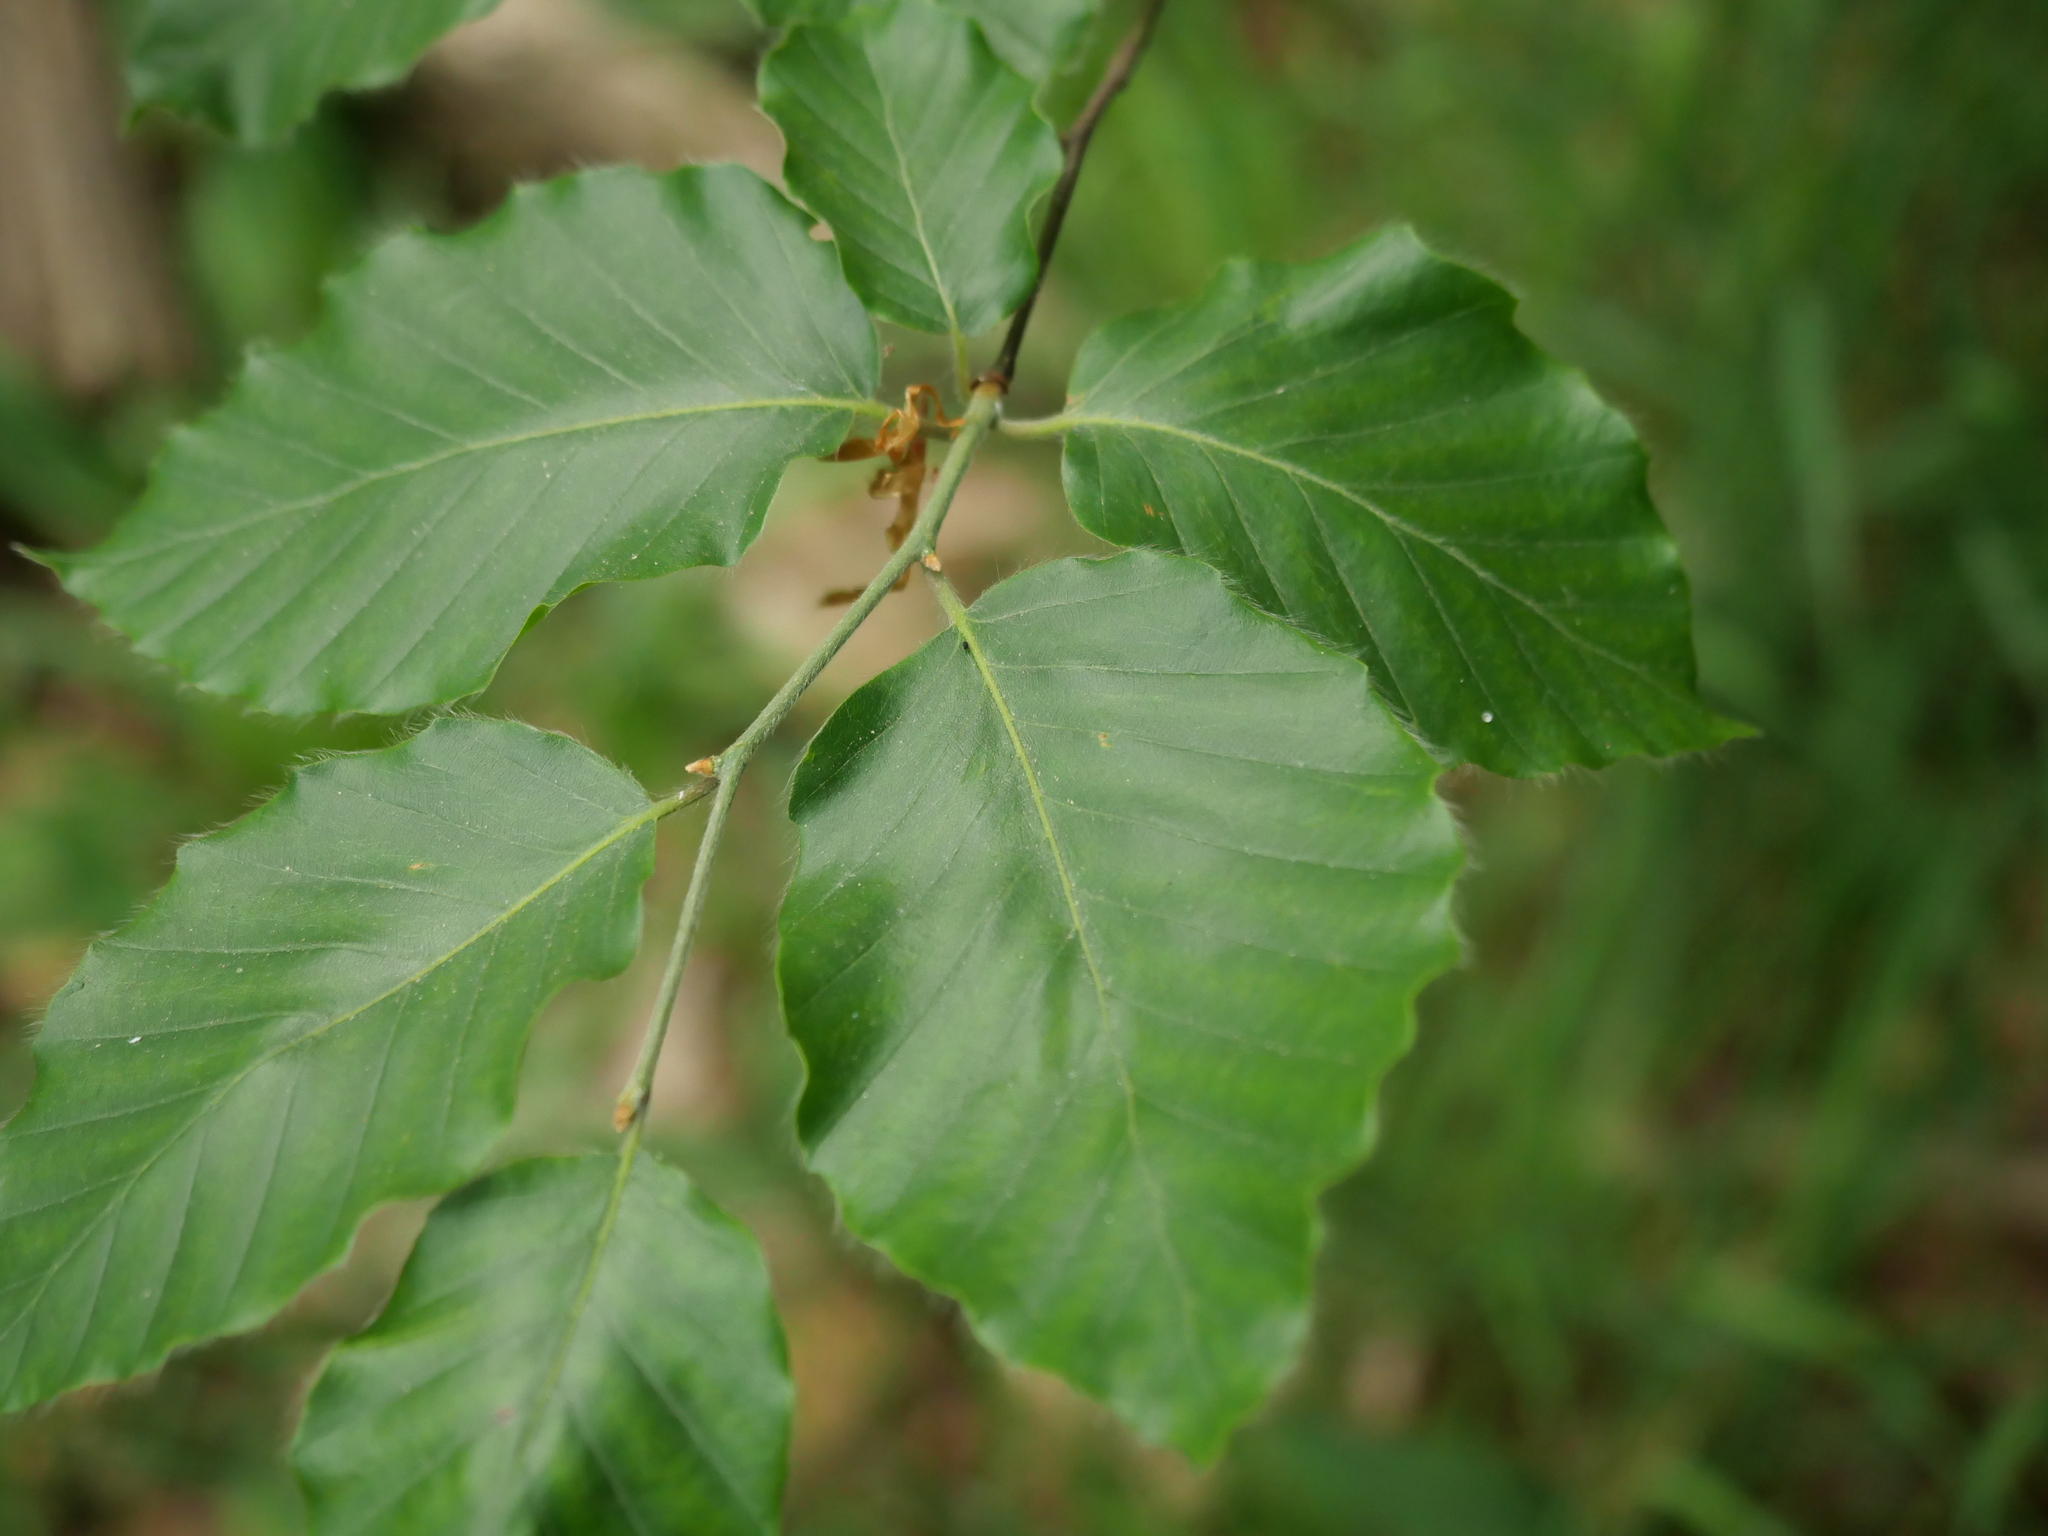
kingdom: Plantae
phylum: Tracheophyta
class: Magnoliopsida
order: Fagales
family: Fagaceae
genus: Fagus
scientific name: Fagus sylvatica
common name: Beech
